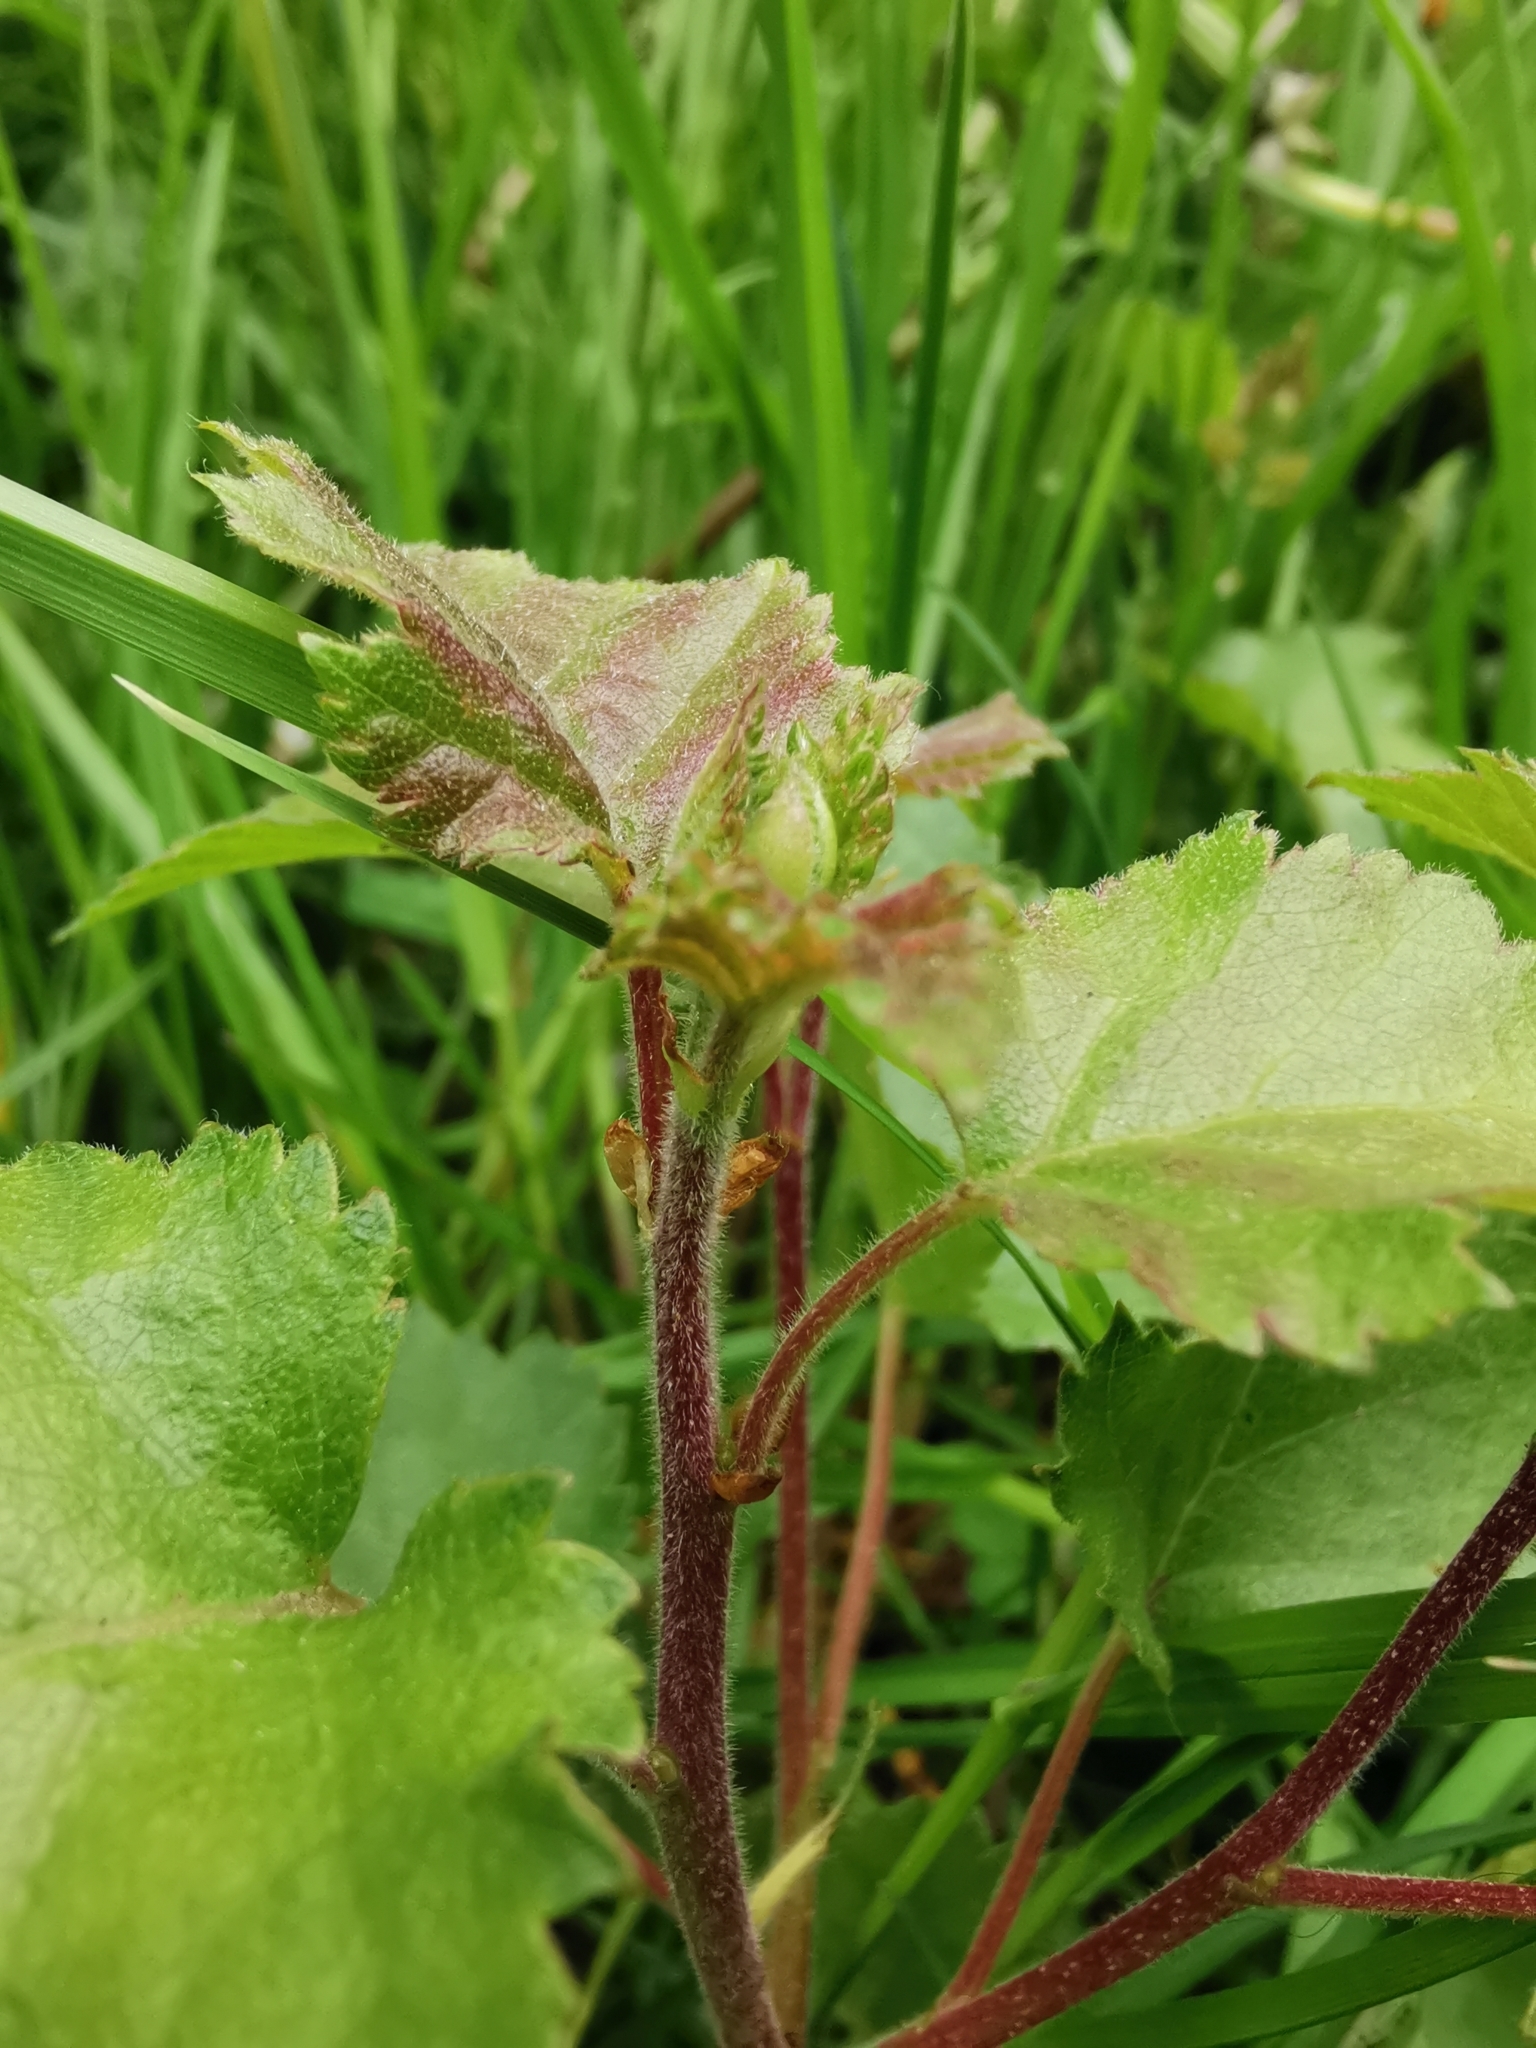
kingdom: Plantae
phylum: Tracheophyta
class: Magnoliopsida
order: Fagales
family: Betulaceae
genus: Betula
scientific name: Betula pubescens
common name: Downy birch
